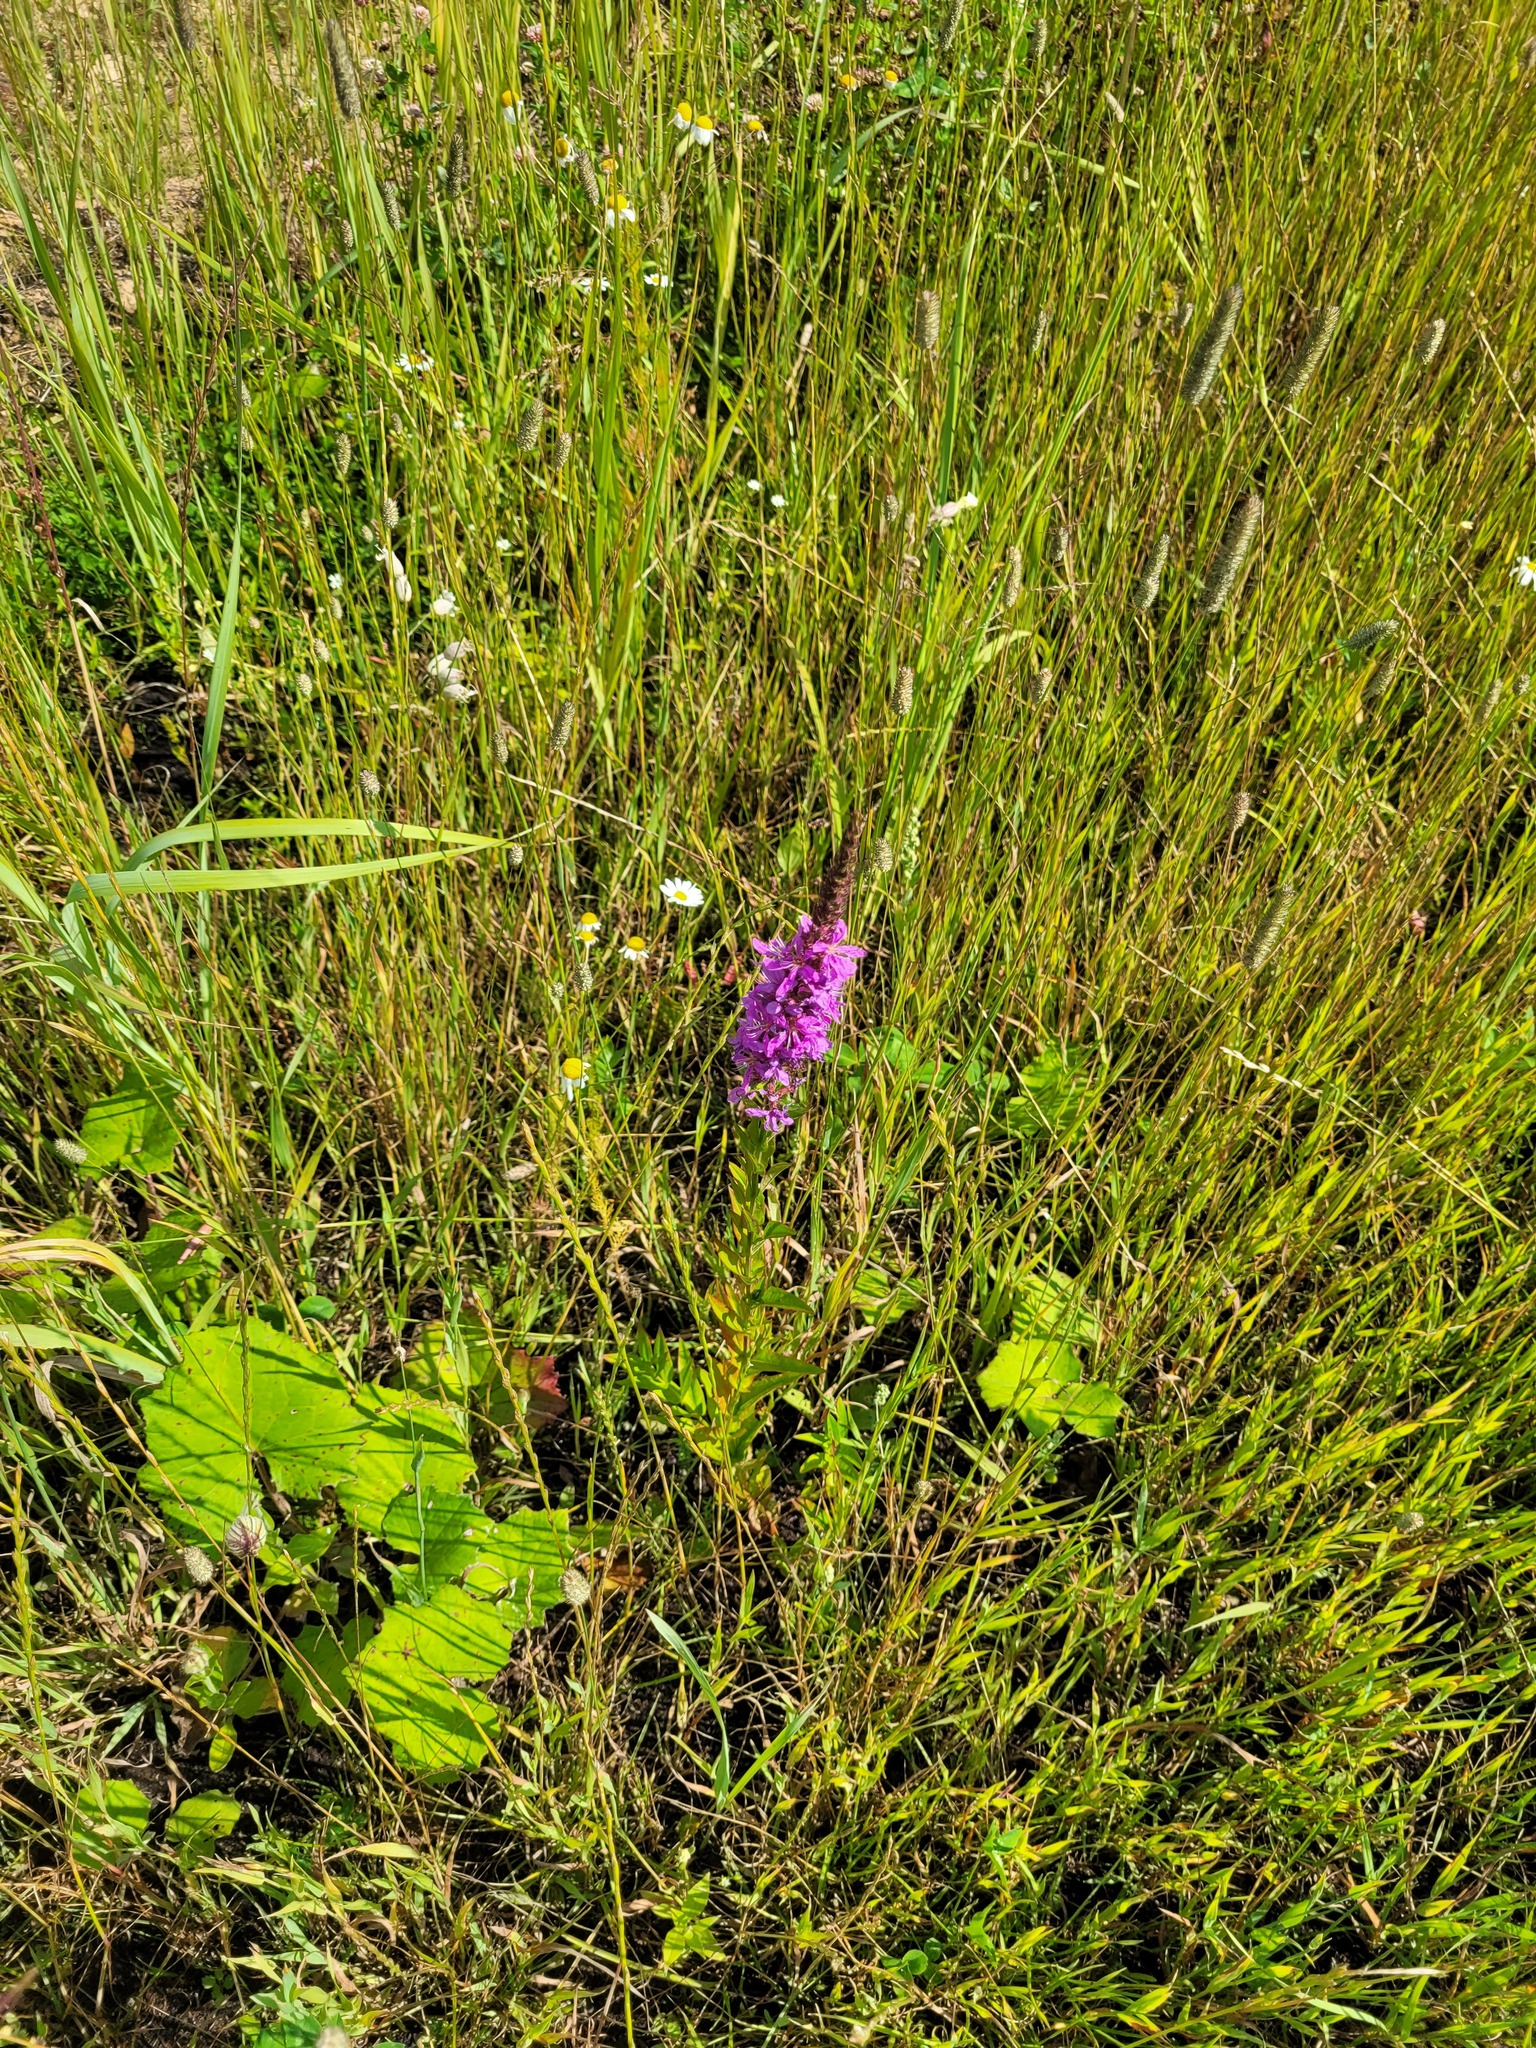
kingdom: Plantae
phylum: Tracheophyta
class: Magnoliopsida
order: Myrtales
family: Lythraceae
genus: Lythrum
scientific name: Lythrum salicaria
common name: Purple loosestrife
